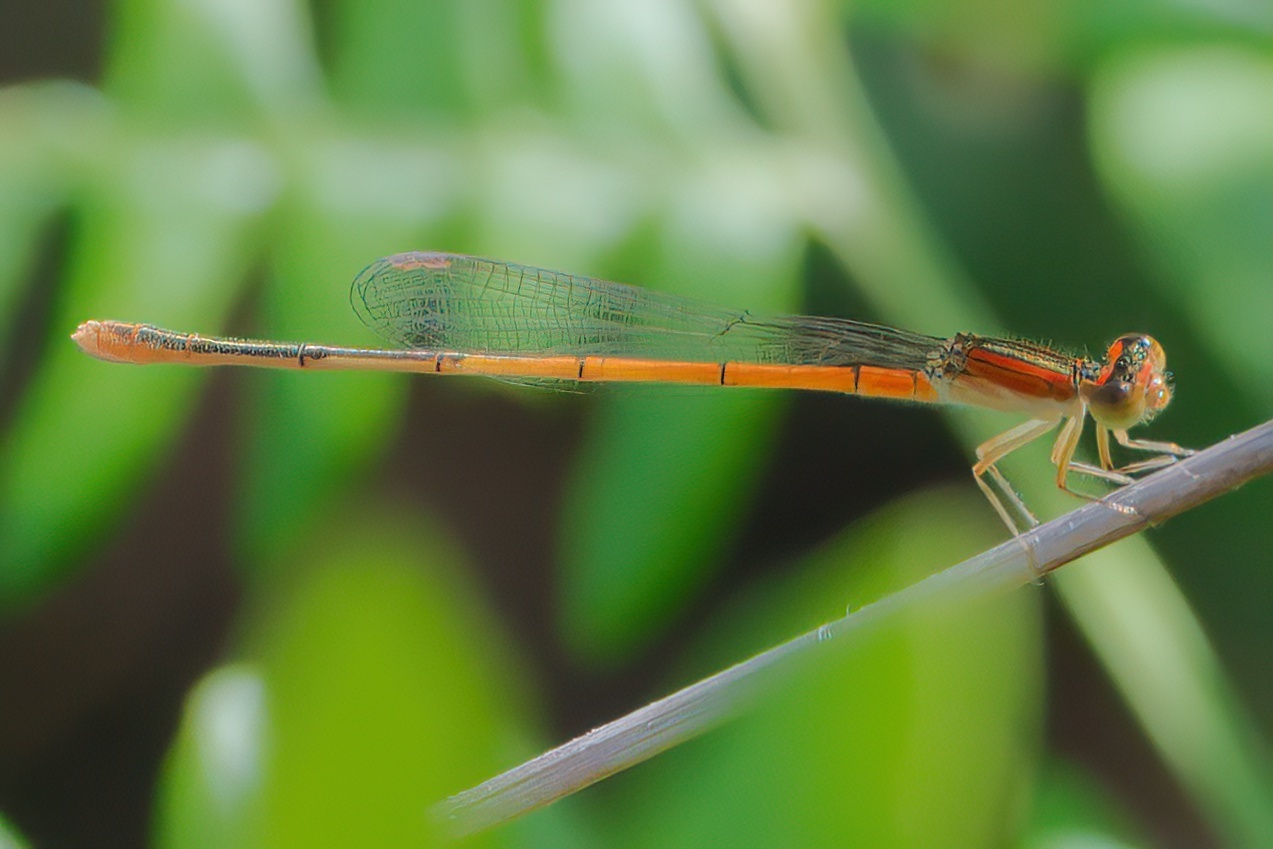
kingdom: Animalia
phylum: Arthropoda
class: Insecta
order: Odonata
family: Coenagrionidae
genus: Ischnura
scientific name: Ischnura hastata
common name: Citrine forktail
